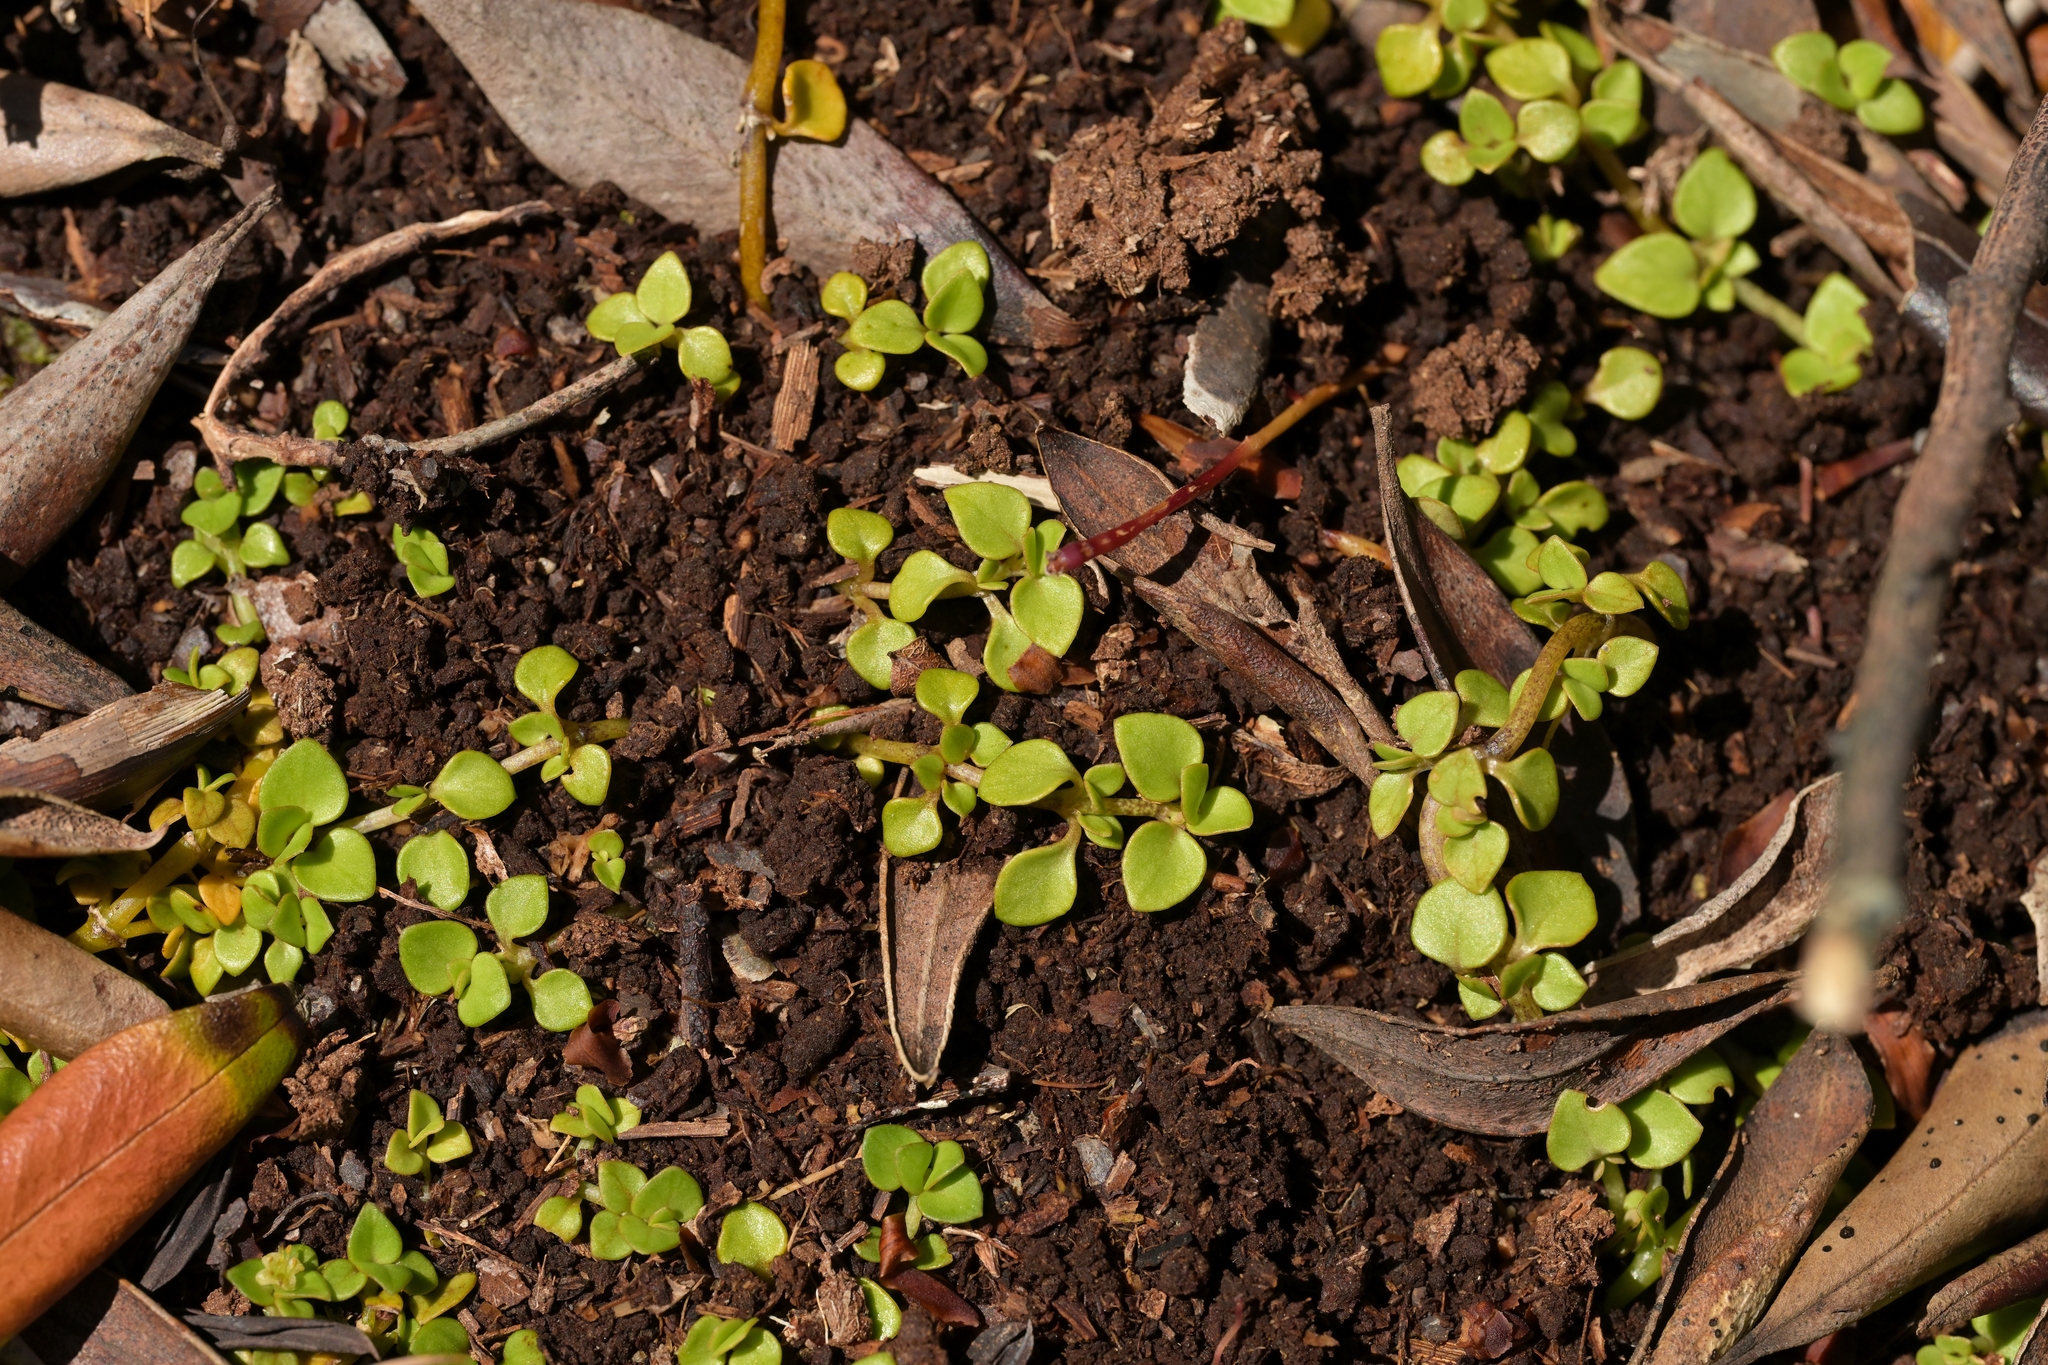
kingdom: Plantae
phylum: Tracheophyta
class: Magnoliopsida
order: Gentianales
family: Rubiaceae
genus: Nertera
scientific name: Nertera granadensis
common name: Beadplant
